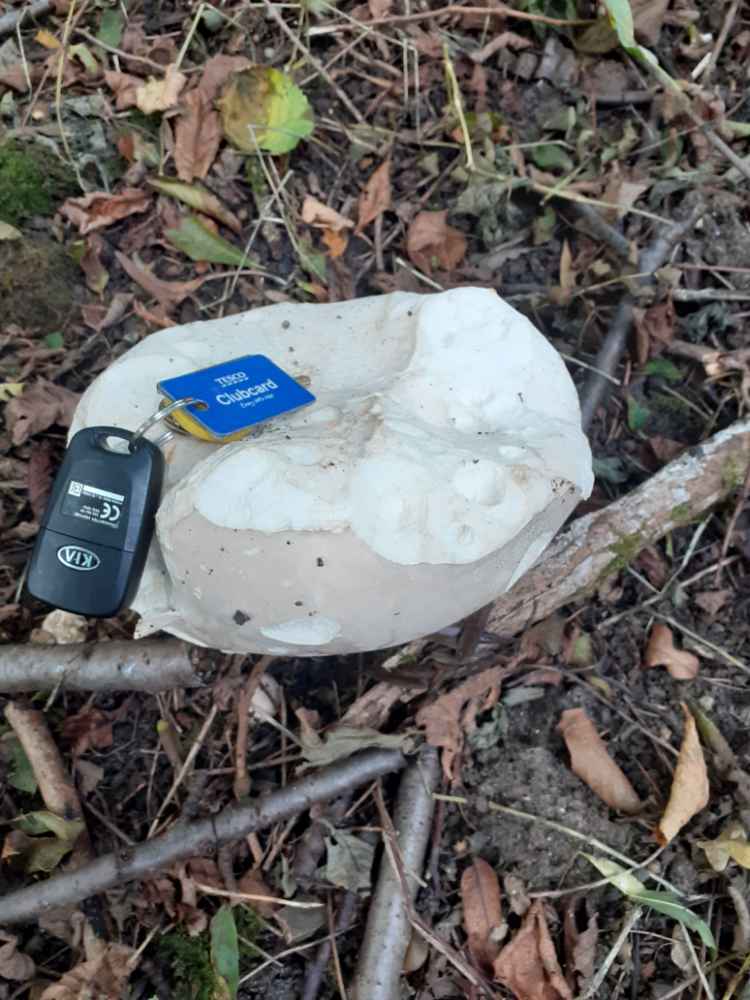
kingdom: Fungi
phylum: Basidiomycota
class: Agaricomycetes
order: Agaricales
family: Lycoperdaceae
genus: Calvatia
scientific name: Calvatia gigantea
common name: Giant puffball
